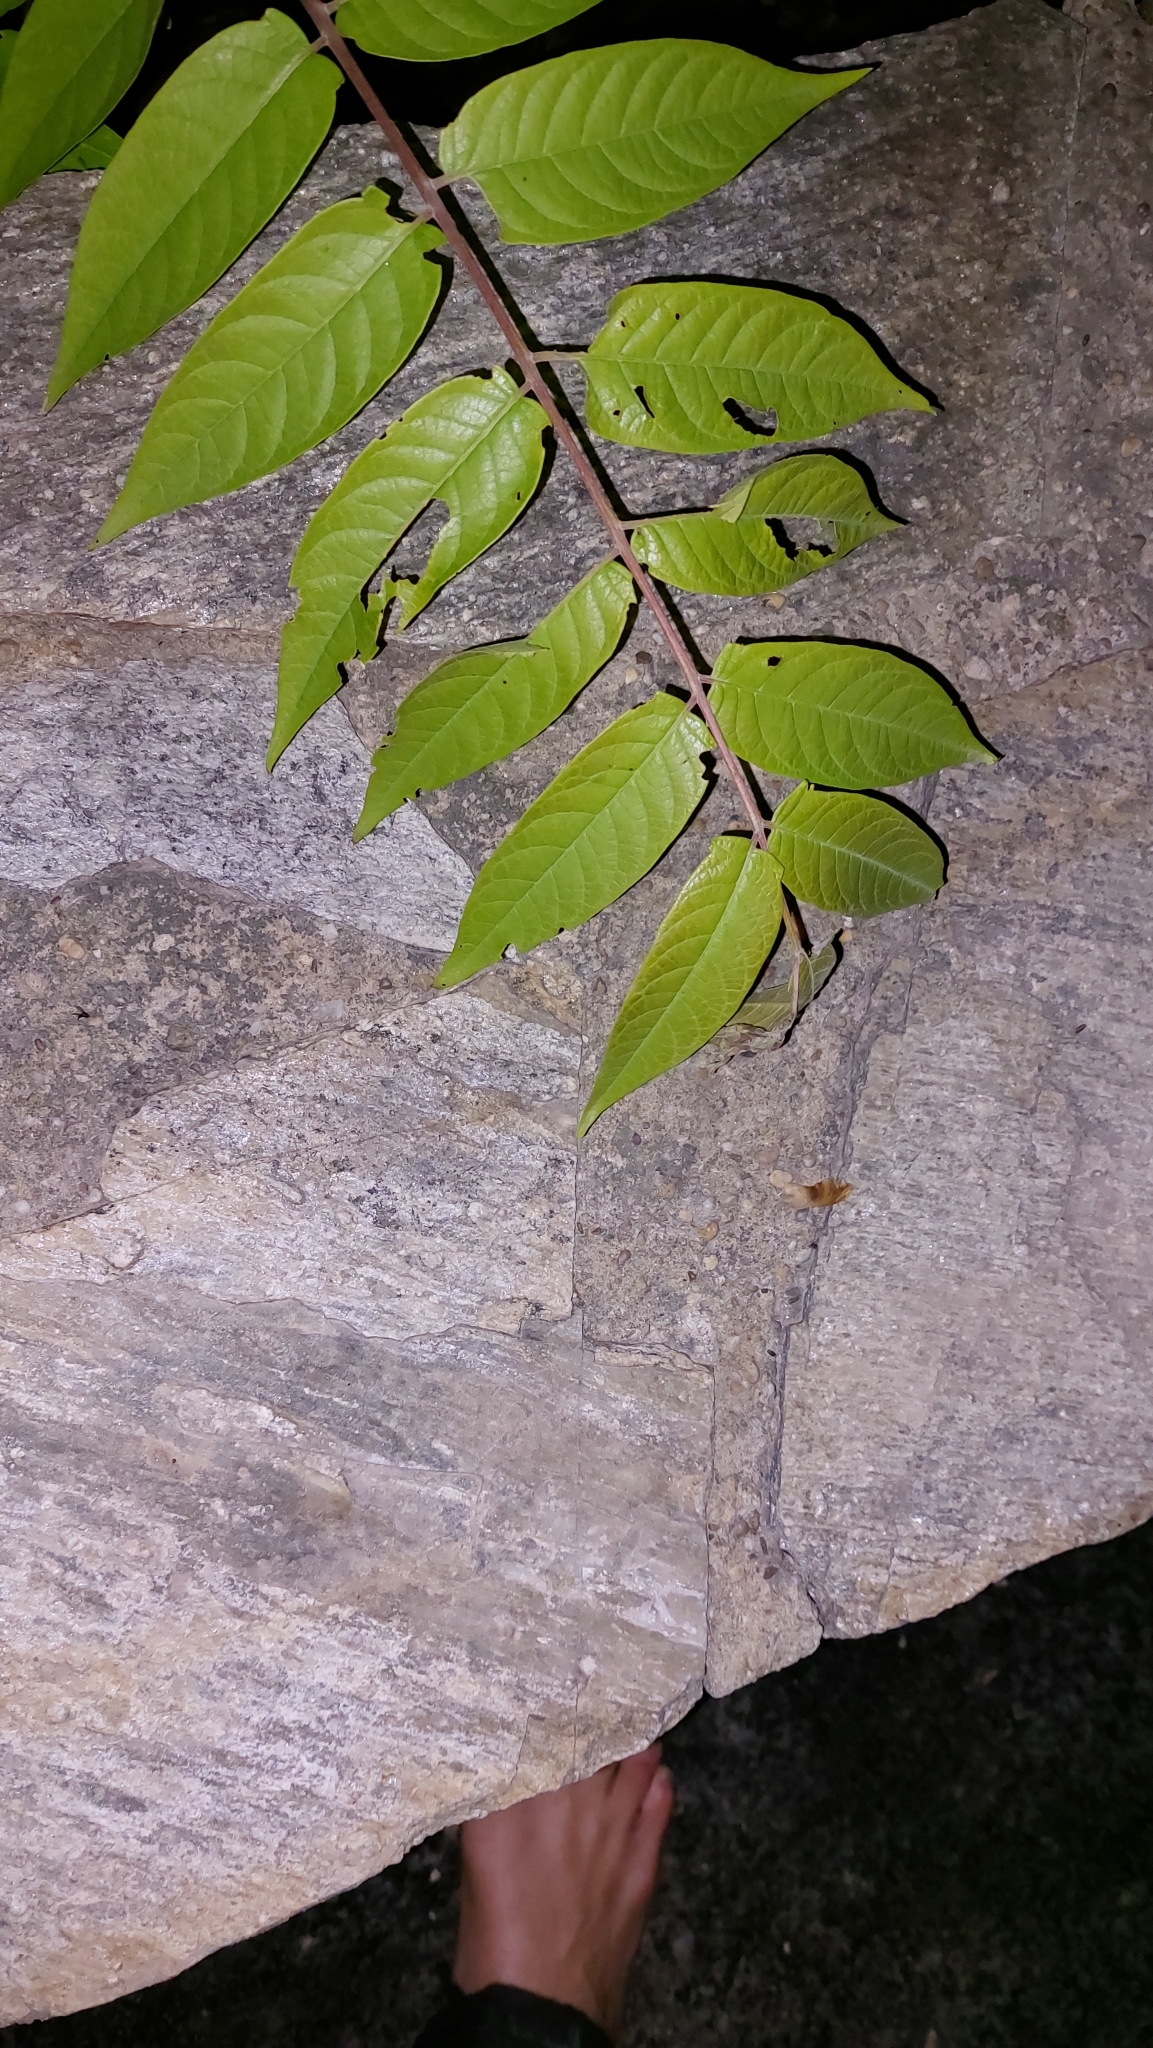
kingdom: Plantae
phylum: Tracheophyta
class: Magnoliopsida
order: Sapindales
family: Simaroubaceae
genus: Ailanthus
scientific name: Ailanthus altissima
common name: Tree-of-heaven
